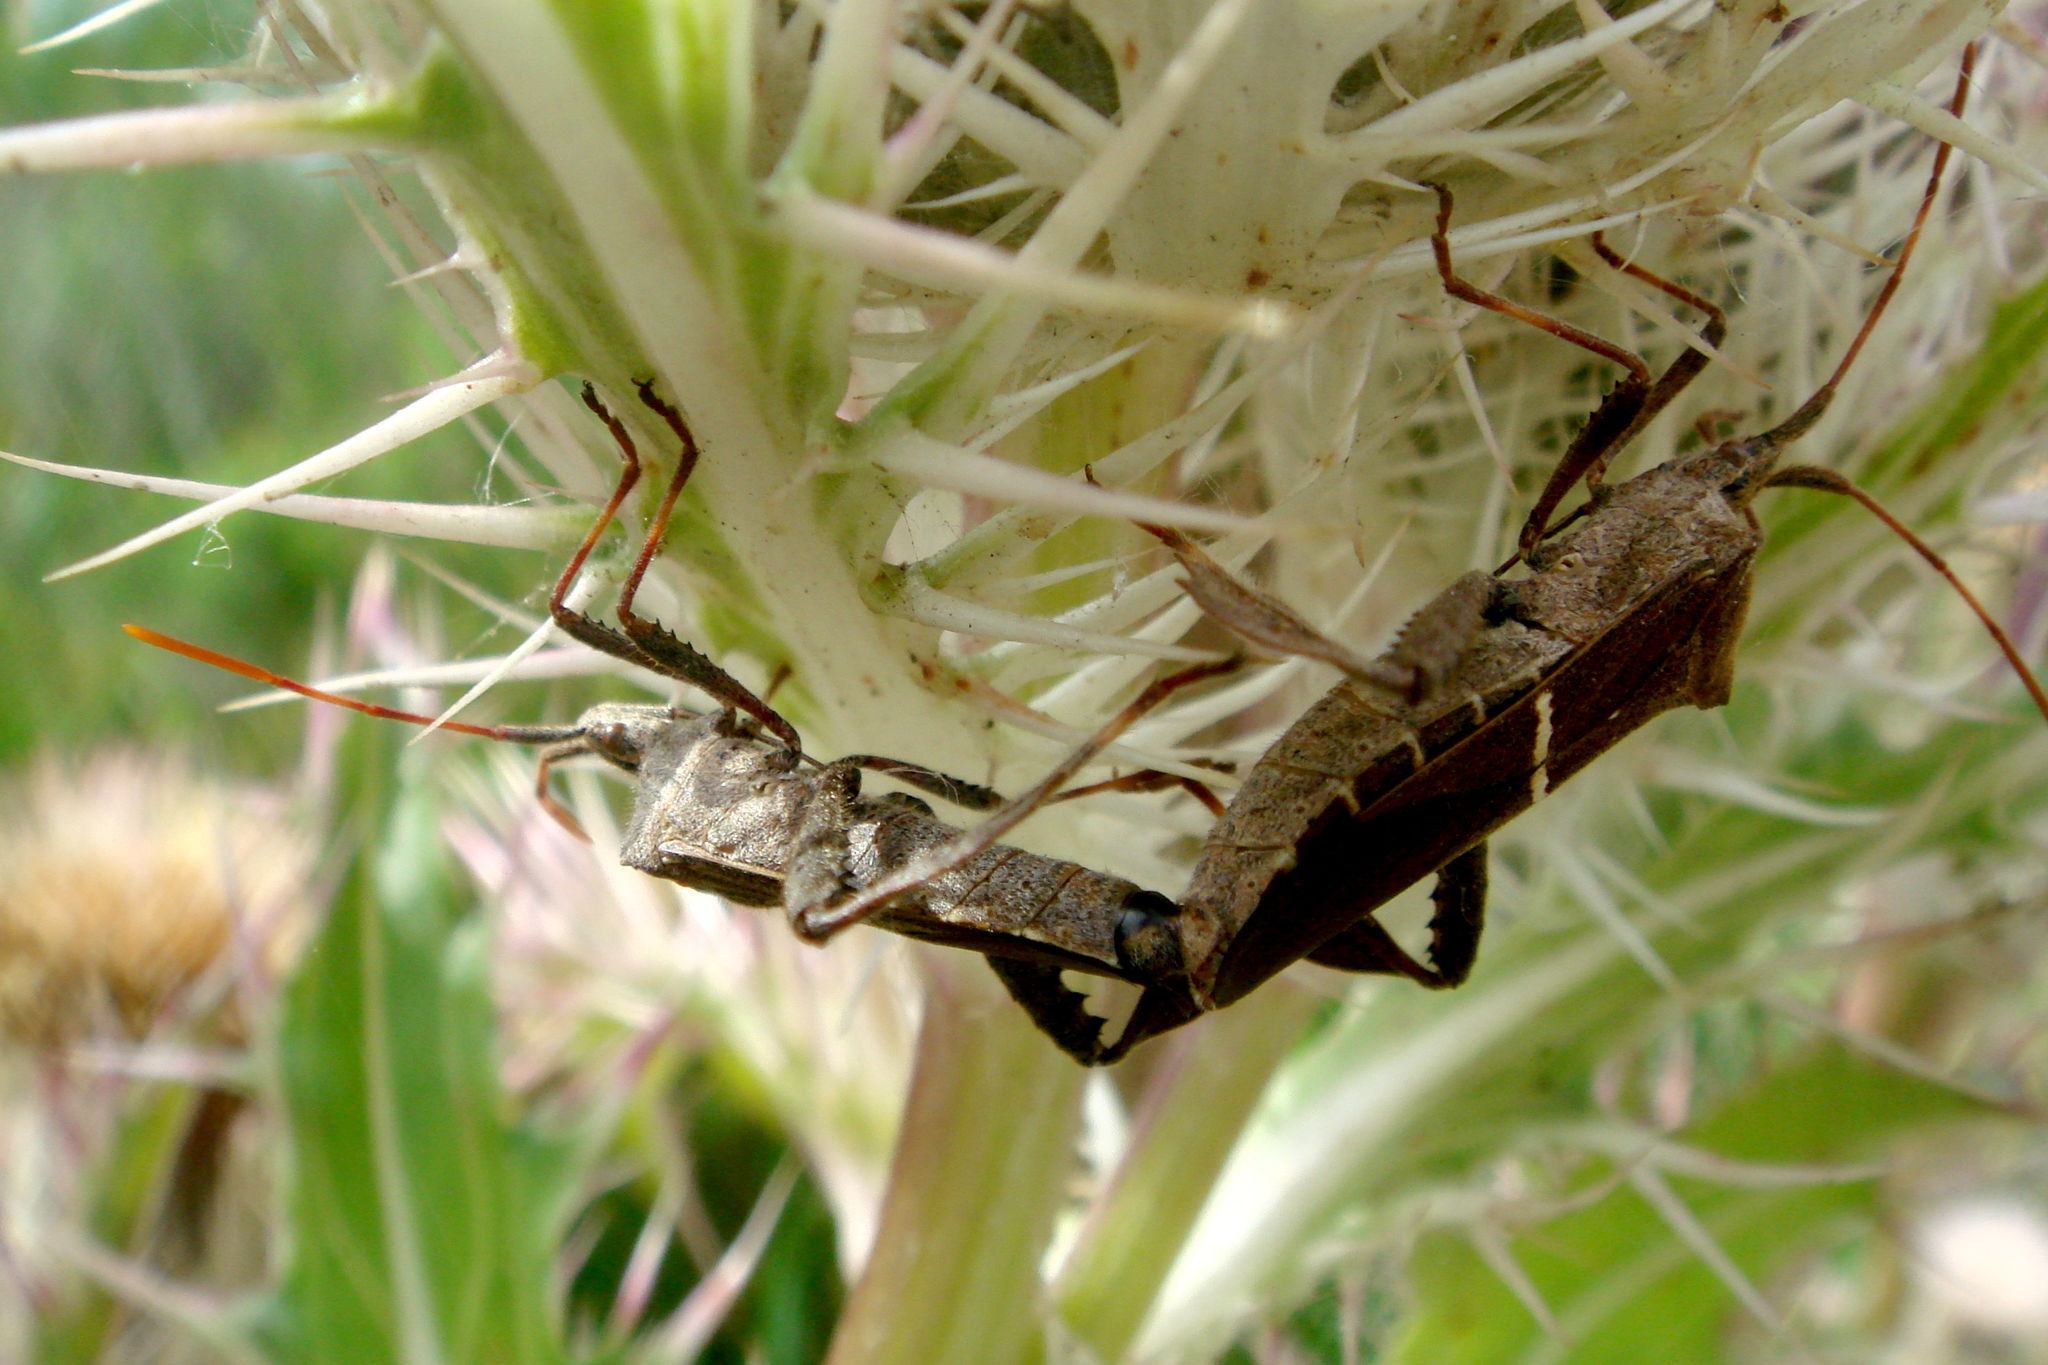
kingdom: Animalia
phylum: Arthropoda
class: Insecta
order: Hemiptera
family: Coreidae
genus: Leptoglossus
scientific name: Leptoglossus phyllopus
